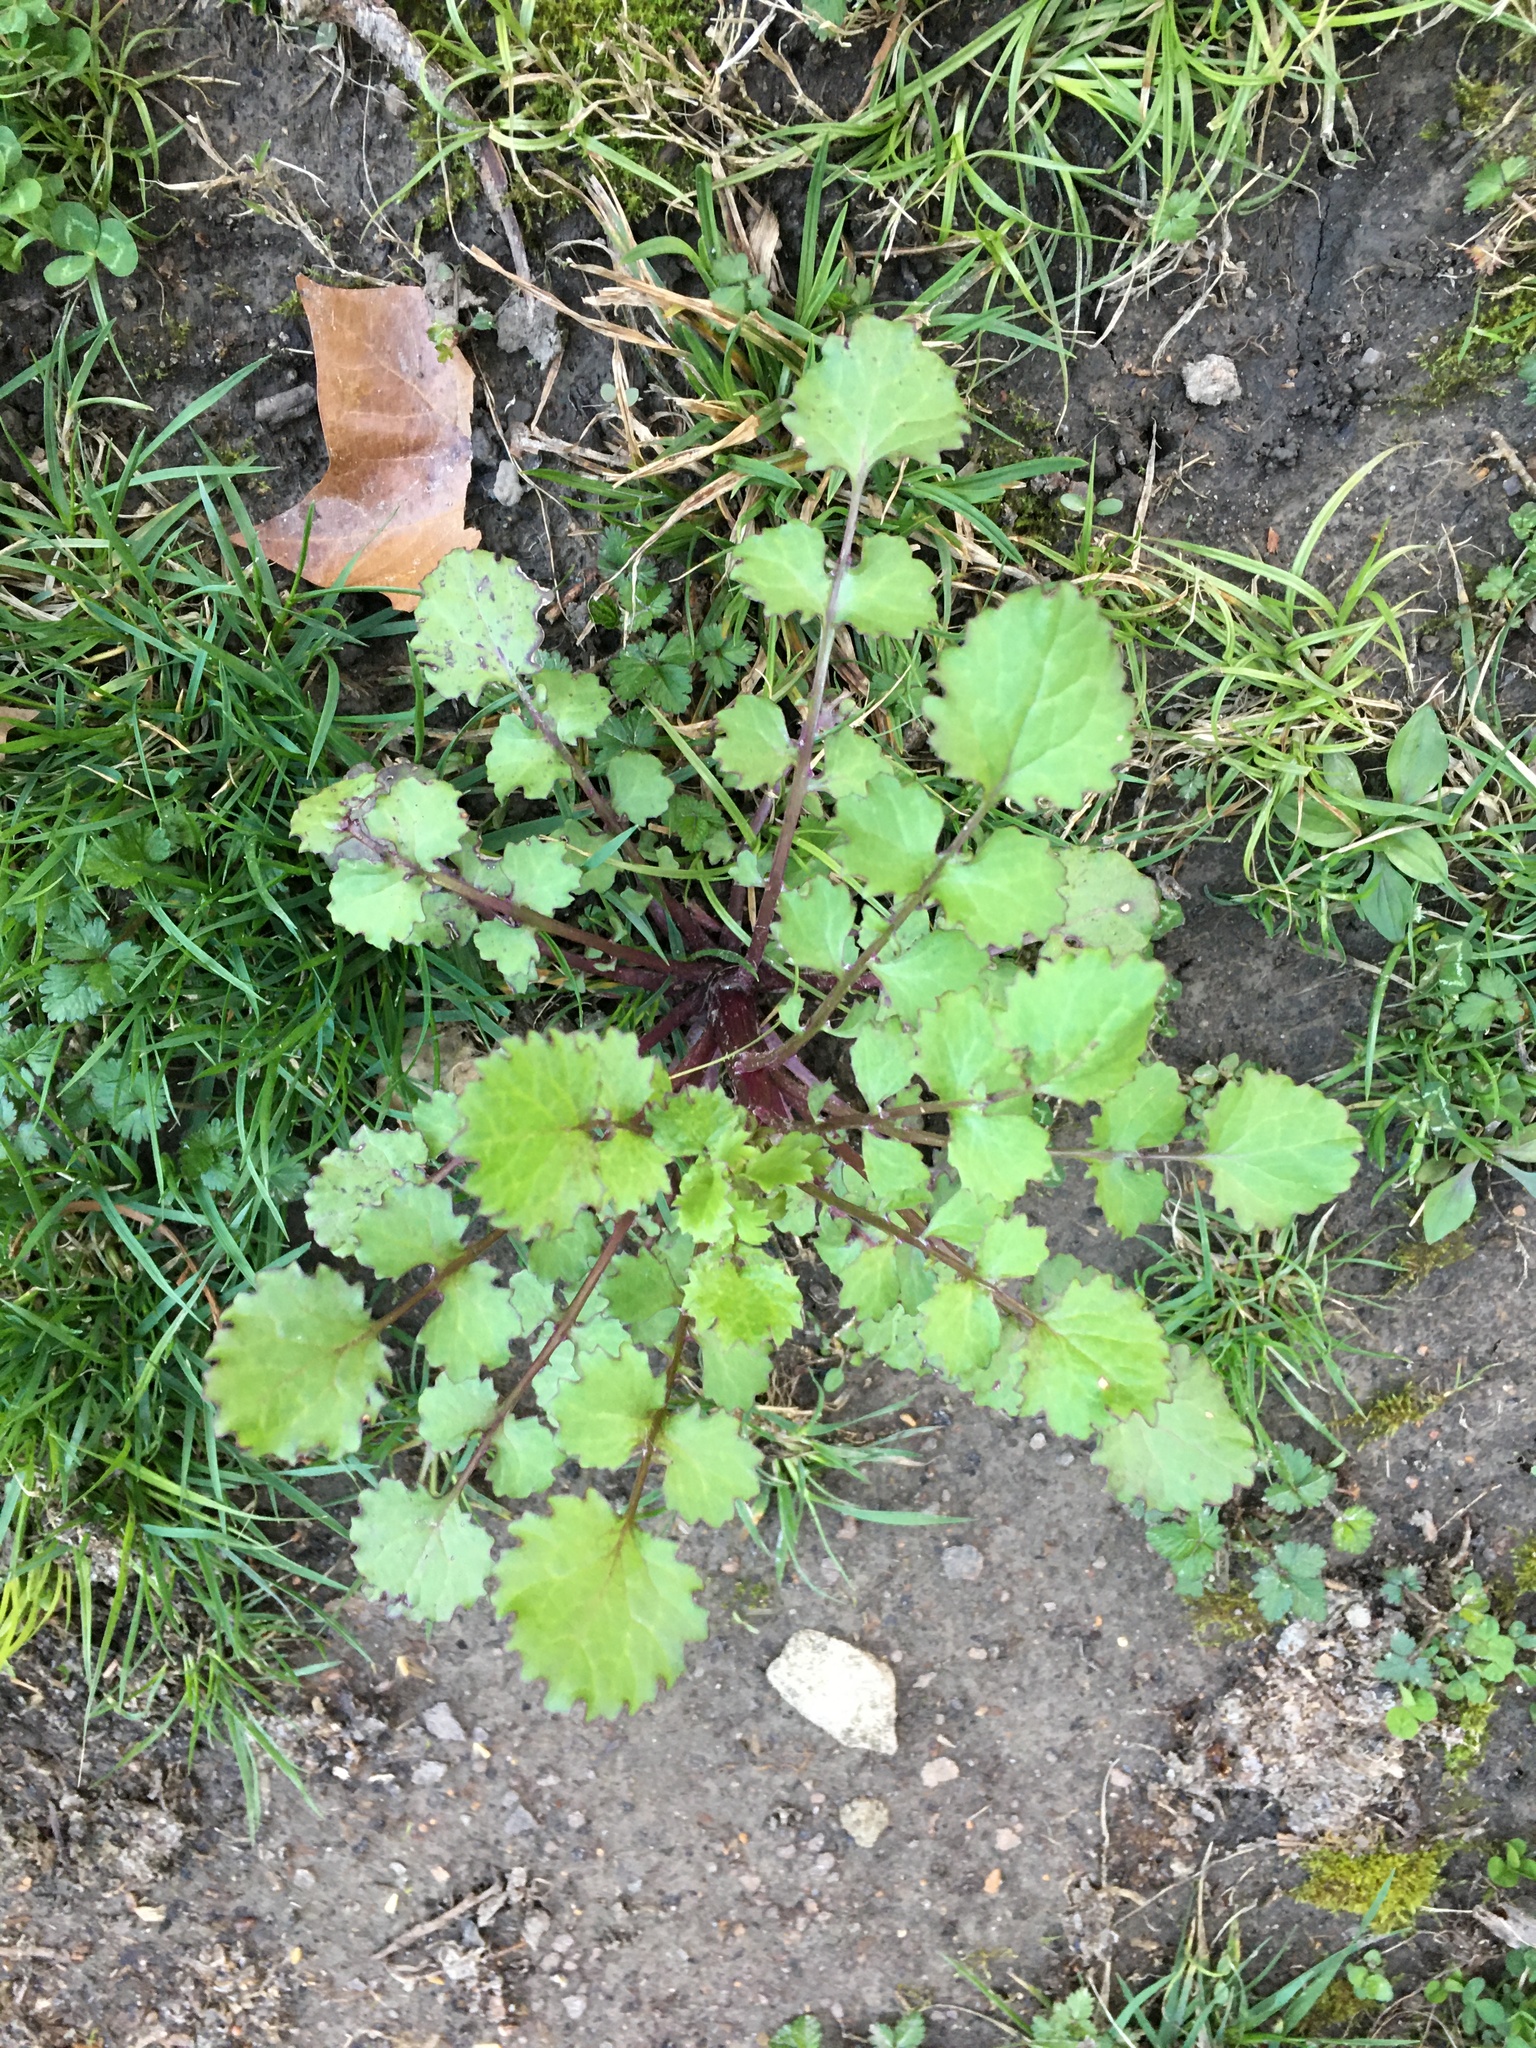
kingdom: Plantae
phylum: Tracheophyta
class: Magnoliopsida
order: Asterales
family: Asteraceae
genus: Packera
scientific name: Packera glabella
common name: Butterweed
